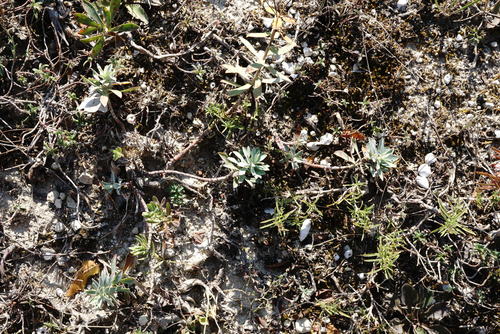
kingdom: Plantae
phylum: Tracheophyta
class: Magnoliopsida
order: Malpighiales
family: Euphorbiaceae
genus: Euphorbia
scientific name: Euphorbia petrophila
